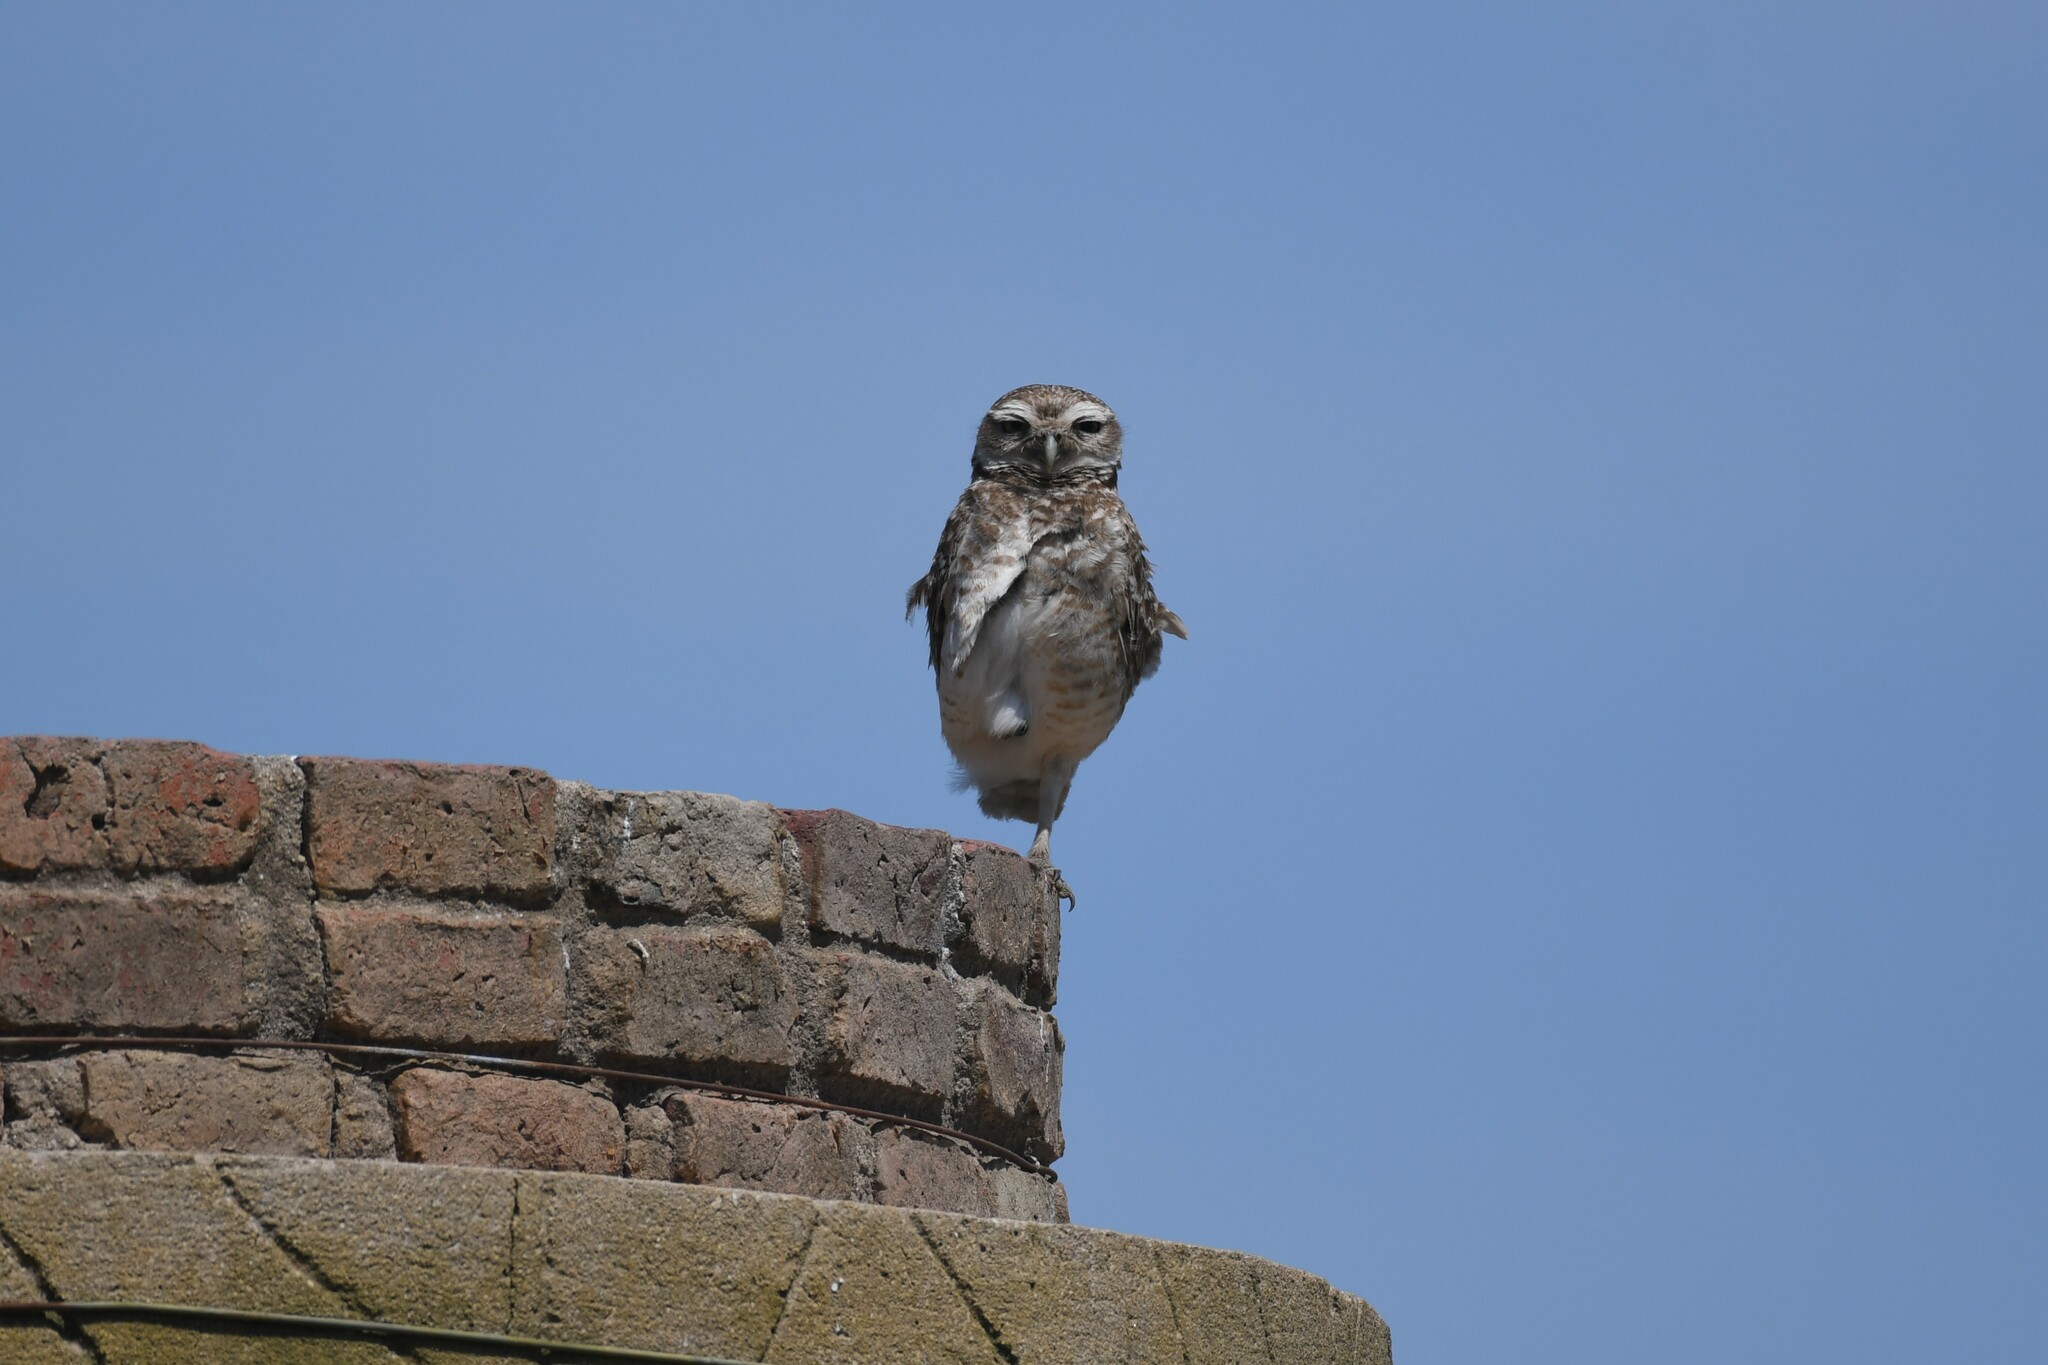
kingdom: Animalia
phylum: Chordata
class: Aves
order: Strigiformes
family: Strigidae
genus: Athene
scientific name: Athene cunicularia
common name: Burrowing owl
